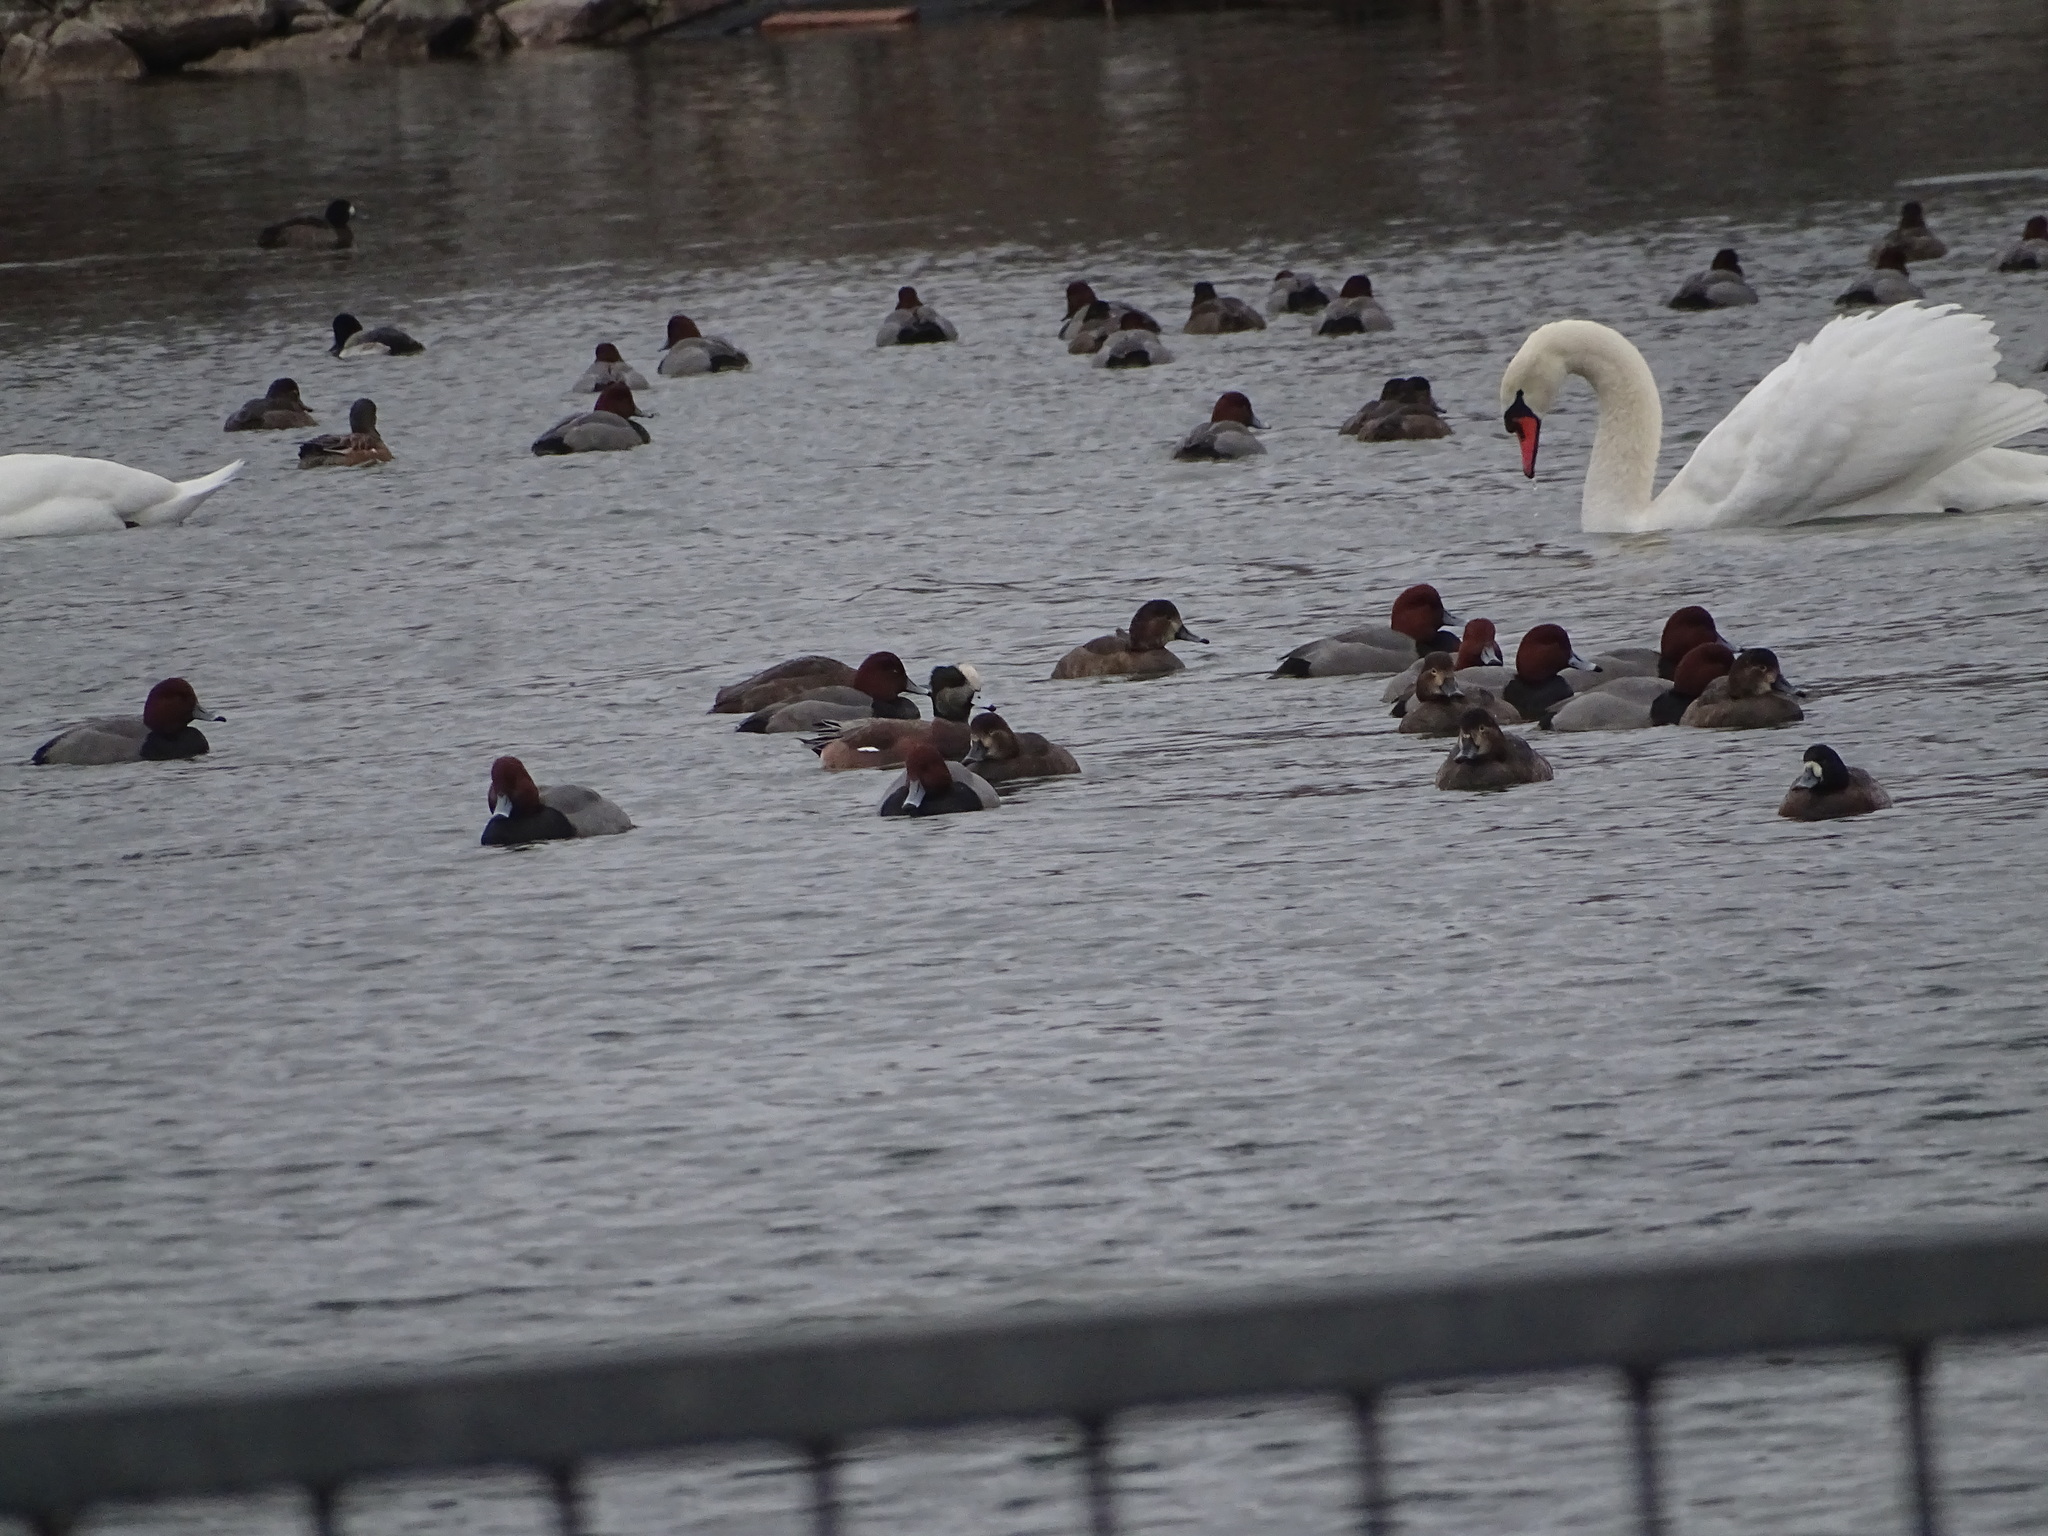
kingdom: Animalia
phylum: Chordata
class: Aves
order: Anseriformes
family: Anatidae
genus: Mareca
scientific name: Mareca americana
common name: American wigeon
